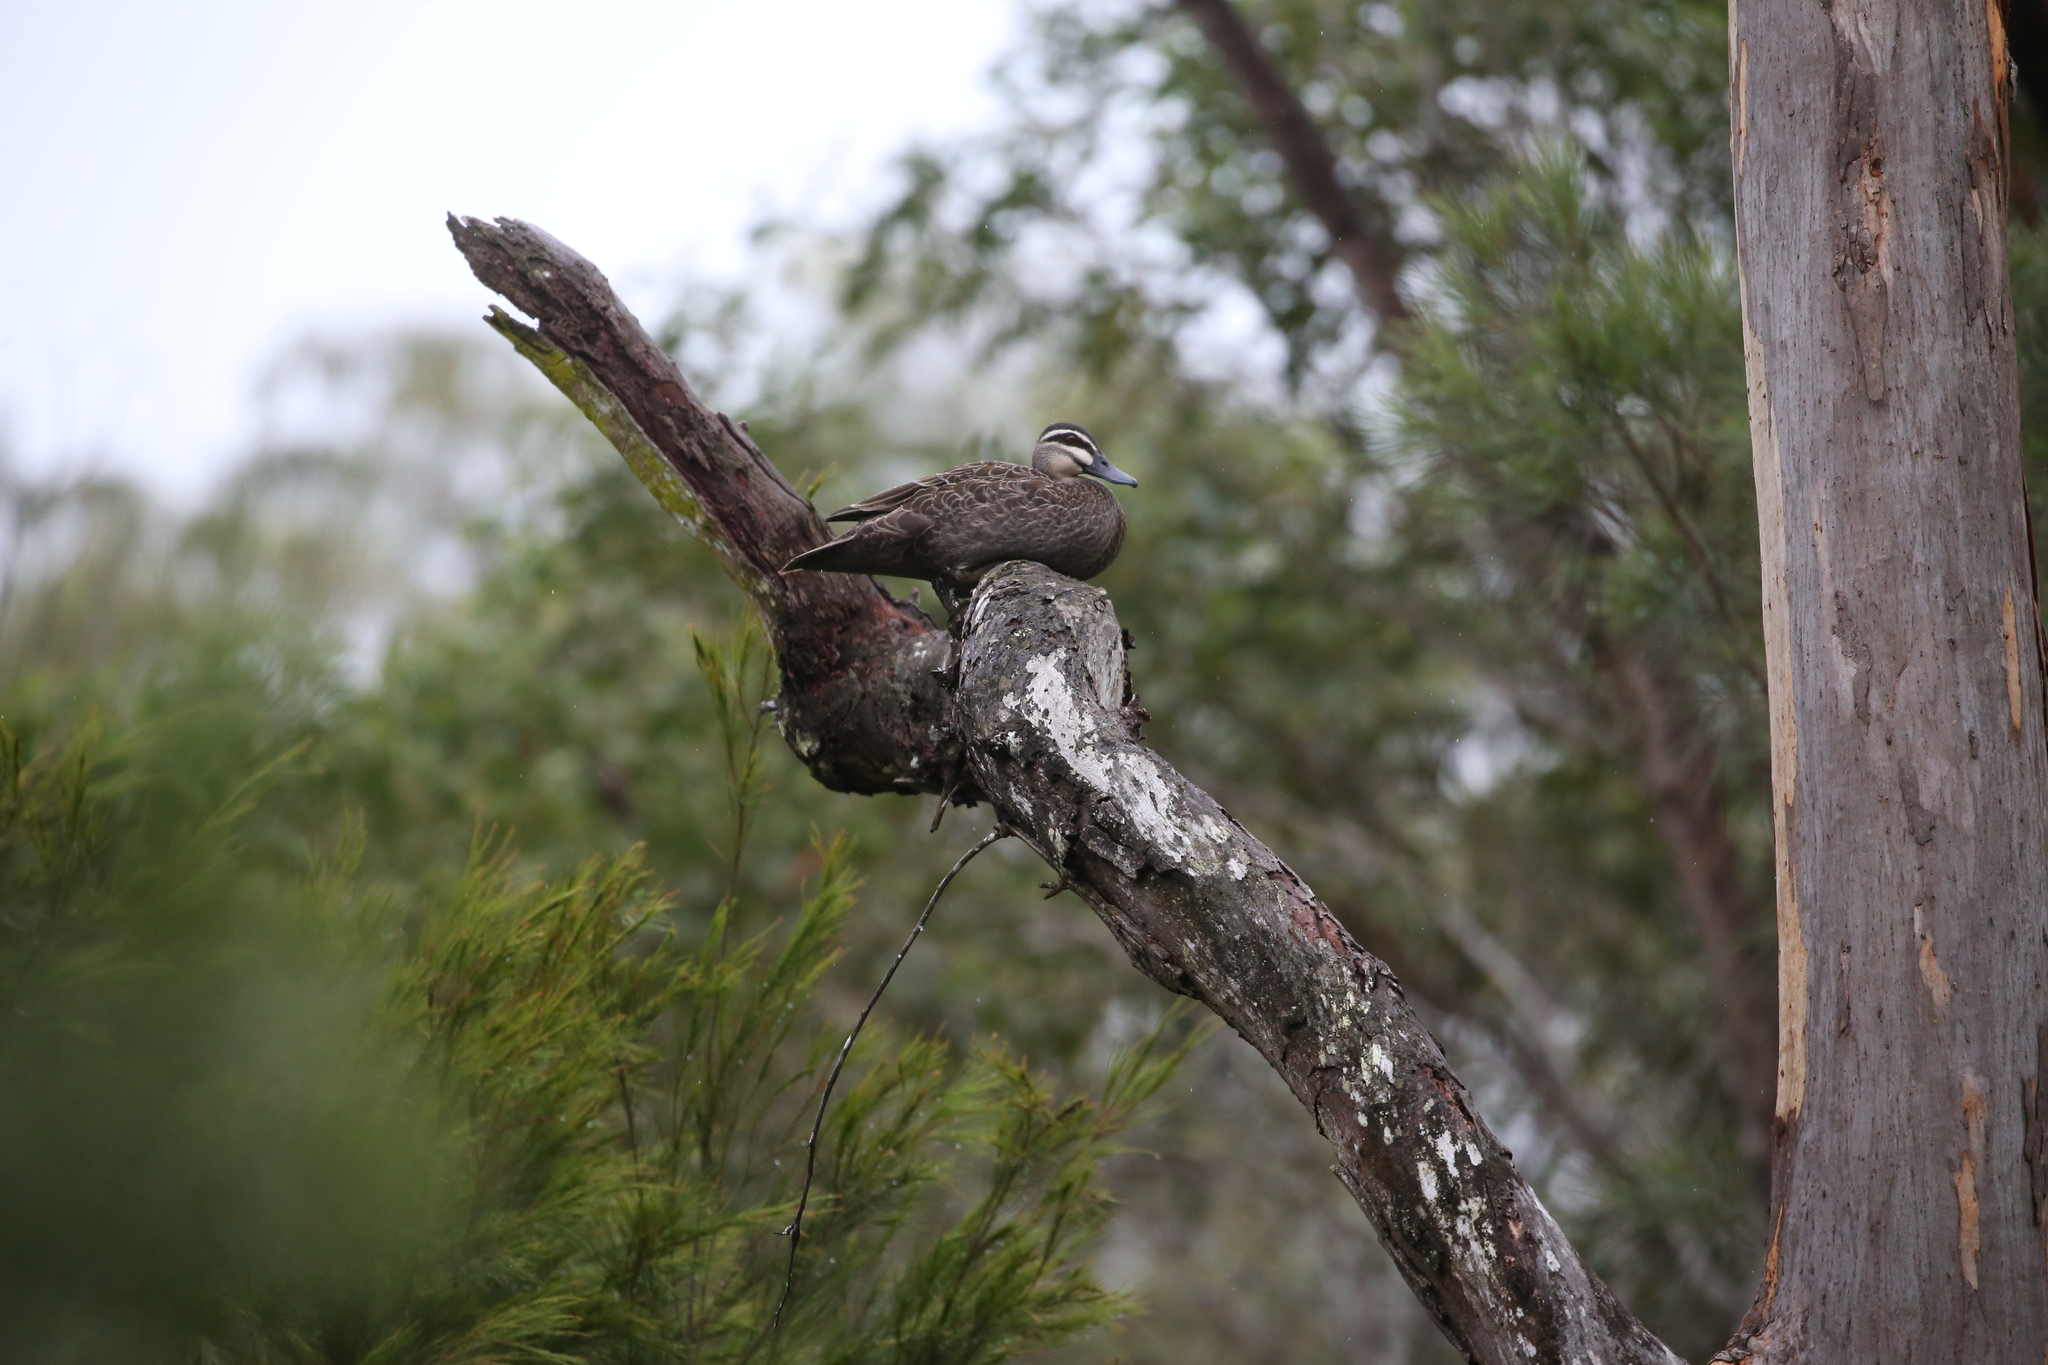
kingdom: Animalia
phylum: Chordata
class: Aves
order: Anseriformes
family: Anatidae
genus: Anas
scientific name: Anas superciliosa
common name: Pacific black duck
